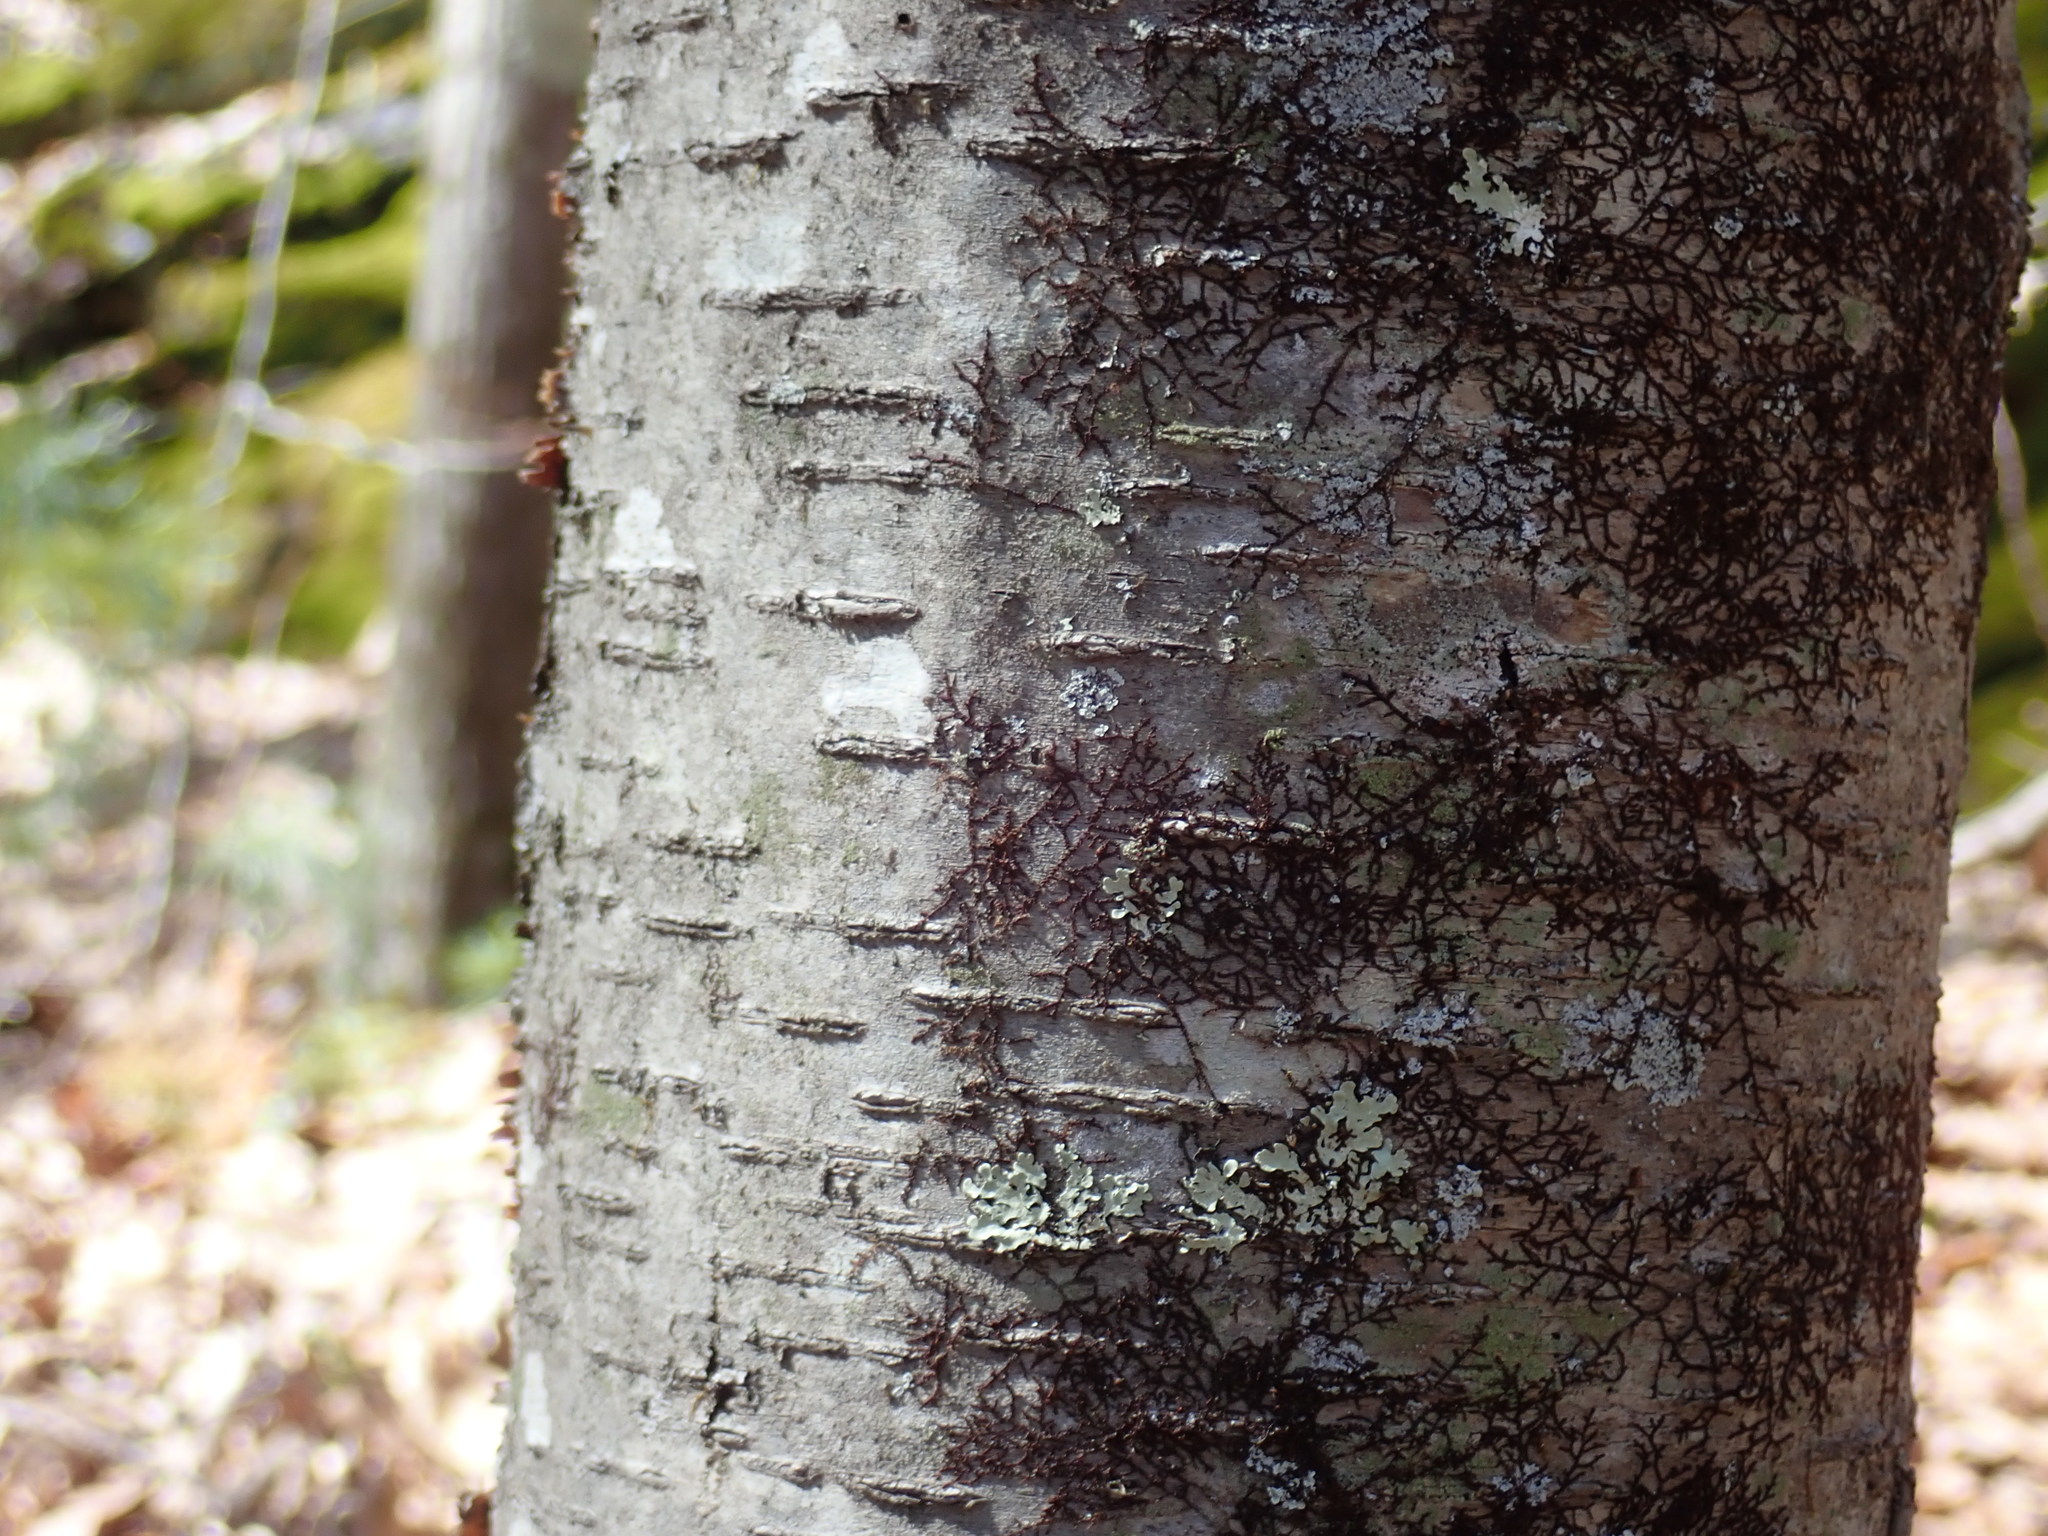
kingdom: Plantae
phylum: Tracheophyta
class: Magnoliopsida
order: Fagales
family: Betulaceae
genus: Betula
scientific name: Betula lenta
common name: Black birch
